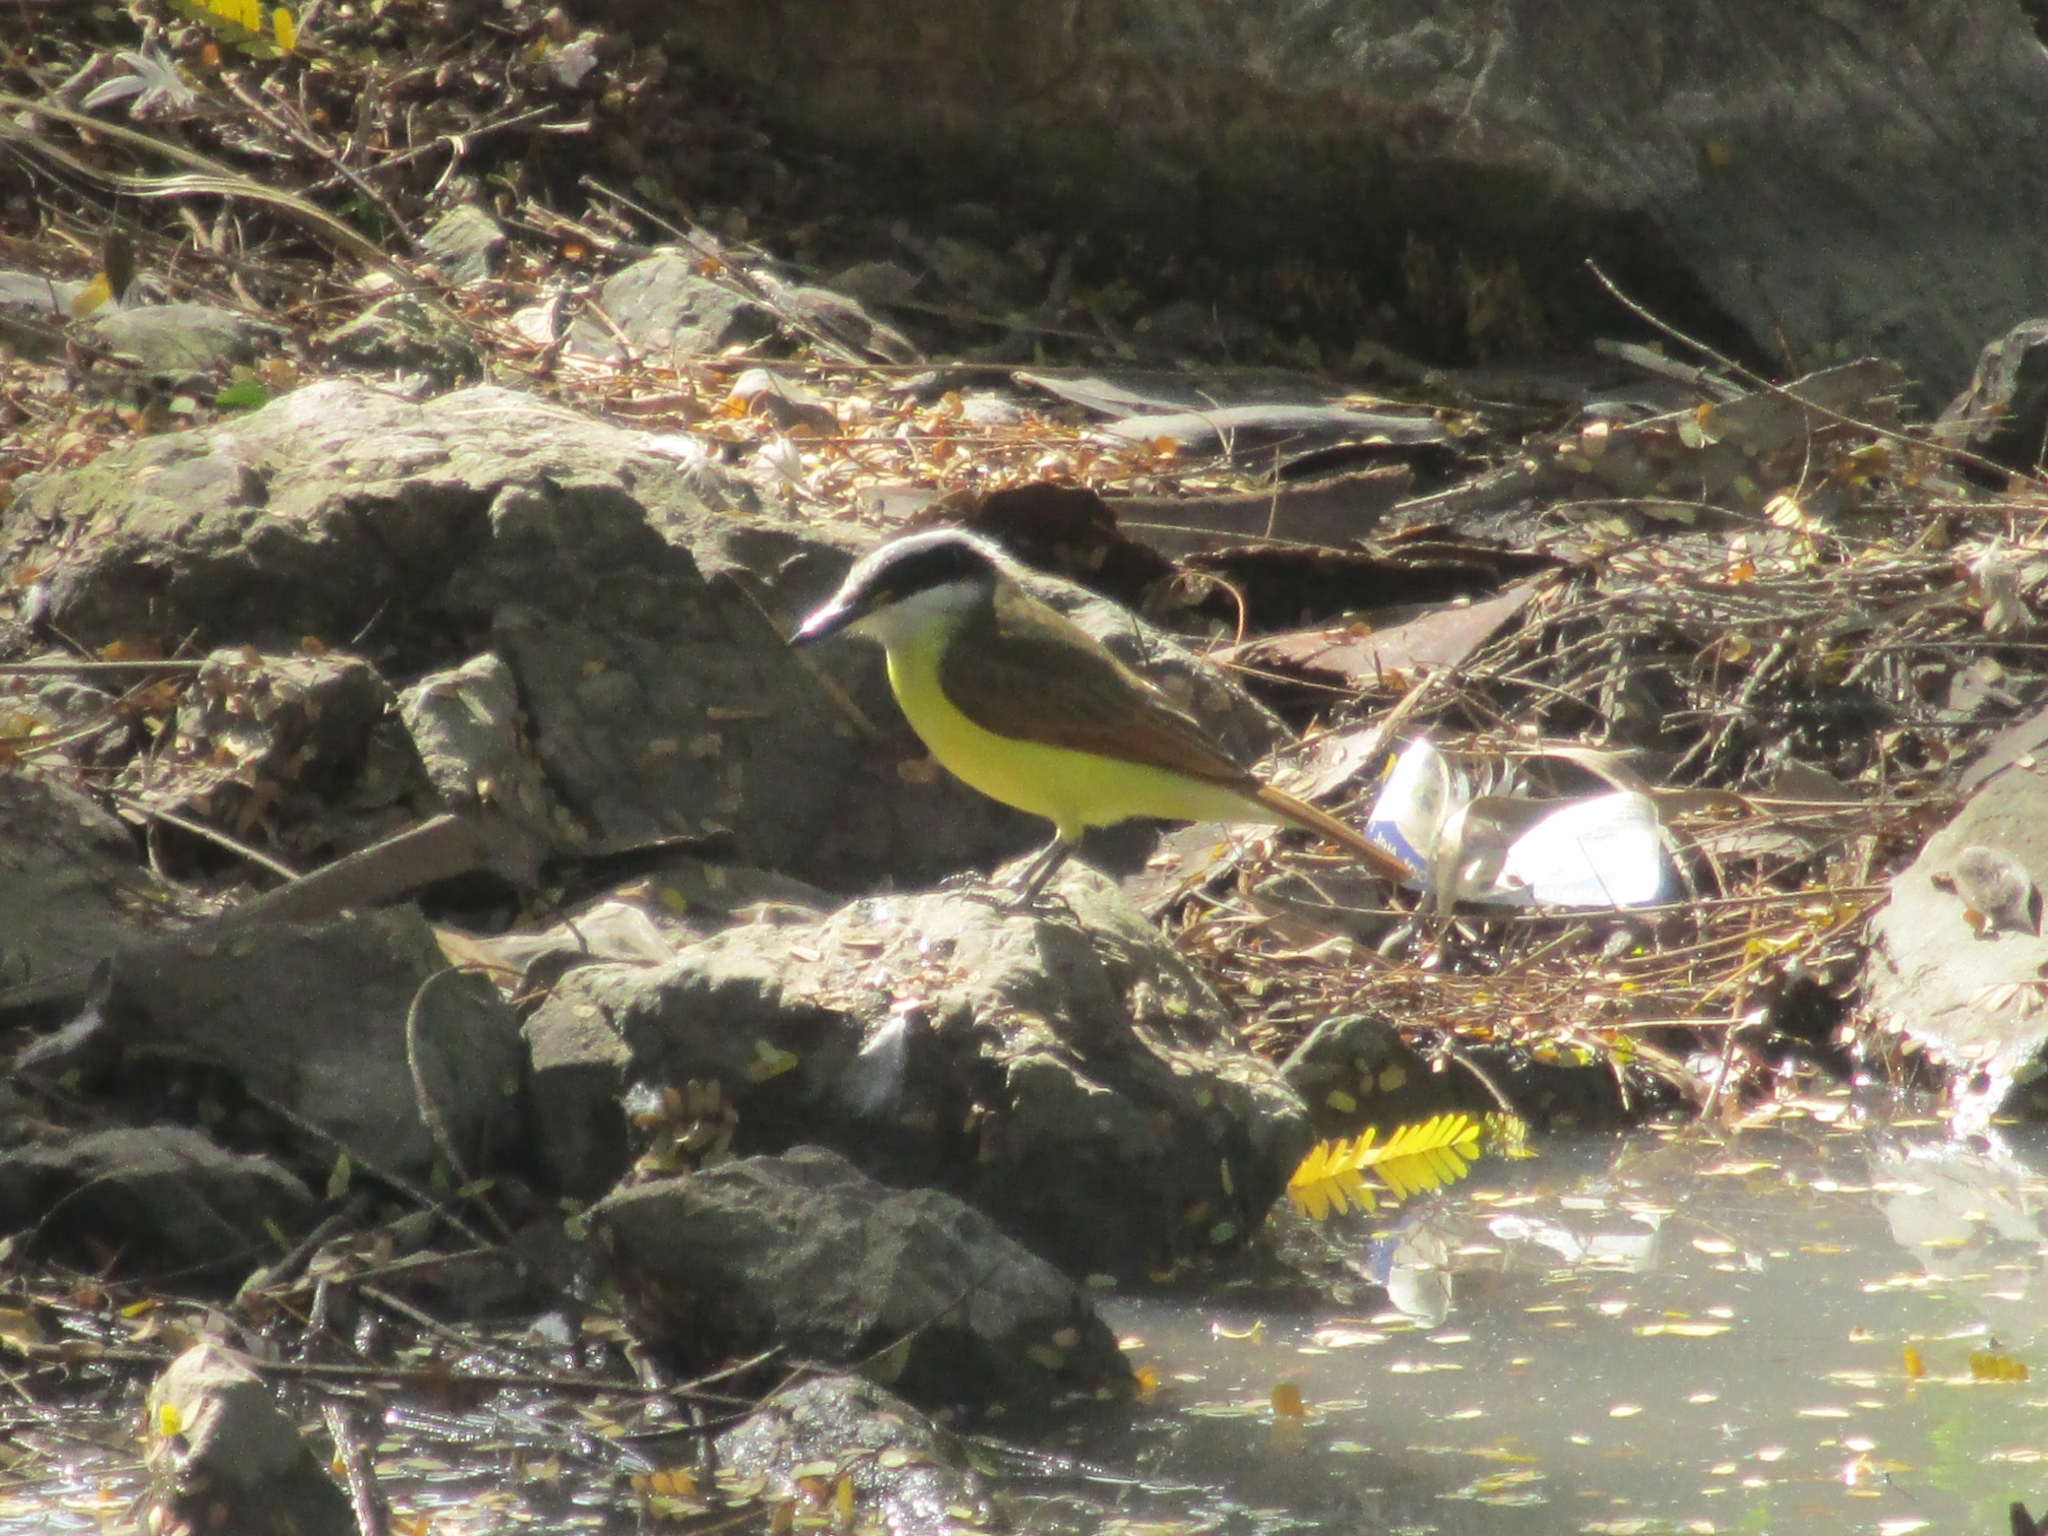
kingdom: Animalia
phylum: Chordata
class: Aves
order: Passeriformes
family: Tyrannidae
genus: Pitangus
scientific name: Pitangus sulphuratus
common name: Great kiskadee
